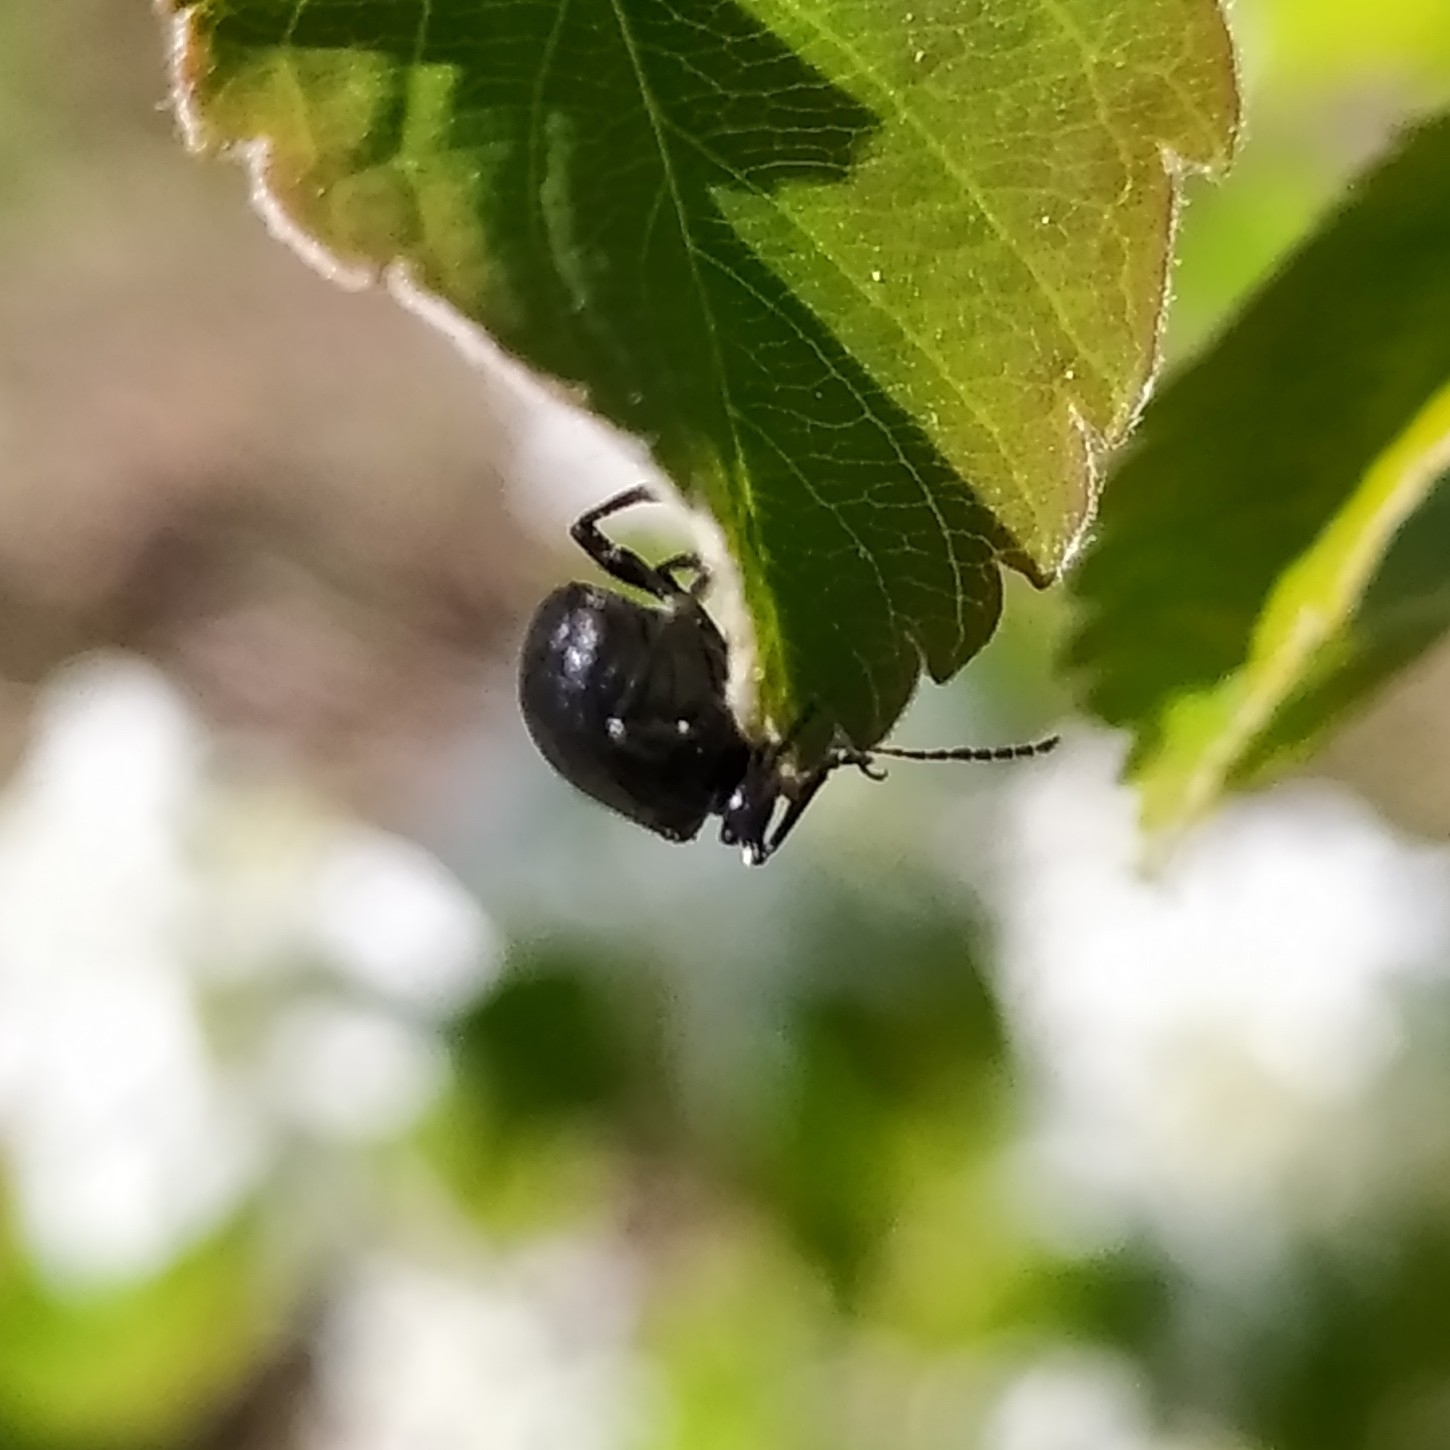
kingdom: Animalia
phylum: Arthropoda
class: Insecta
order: Coleoptera
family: Chrysomelidae
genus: Bromius
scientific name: Bromius obscurus
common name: Western grape rootworm
